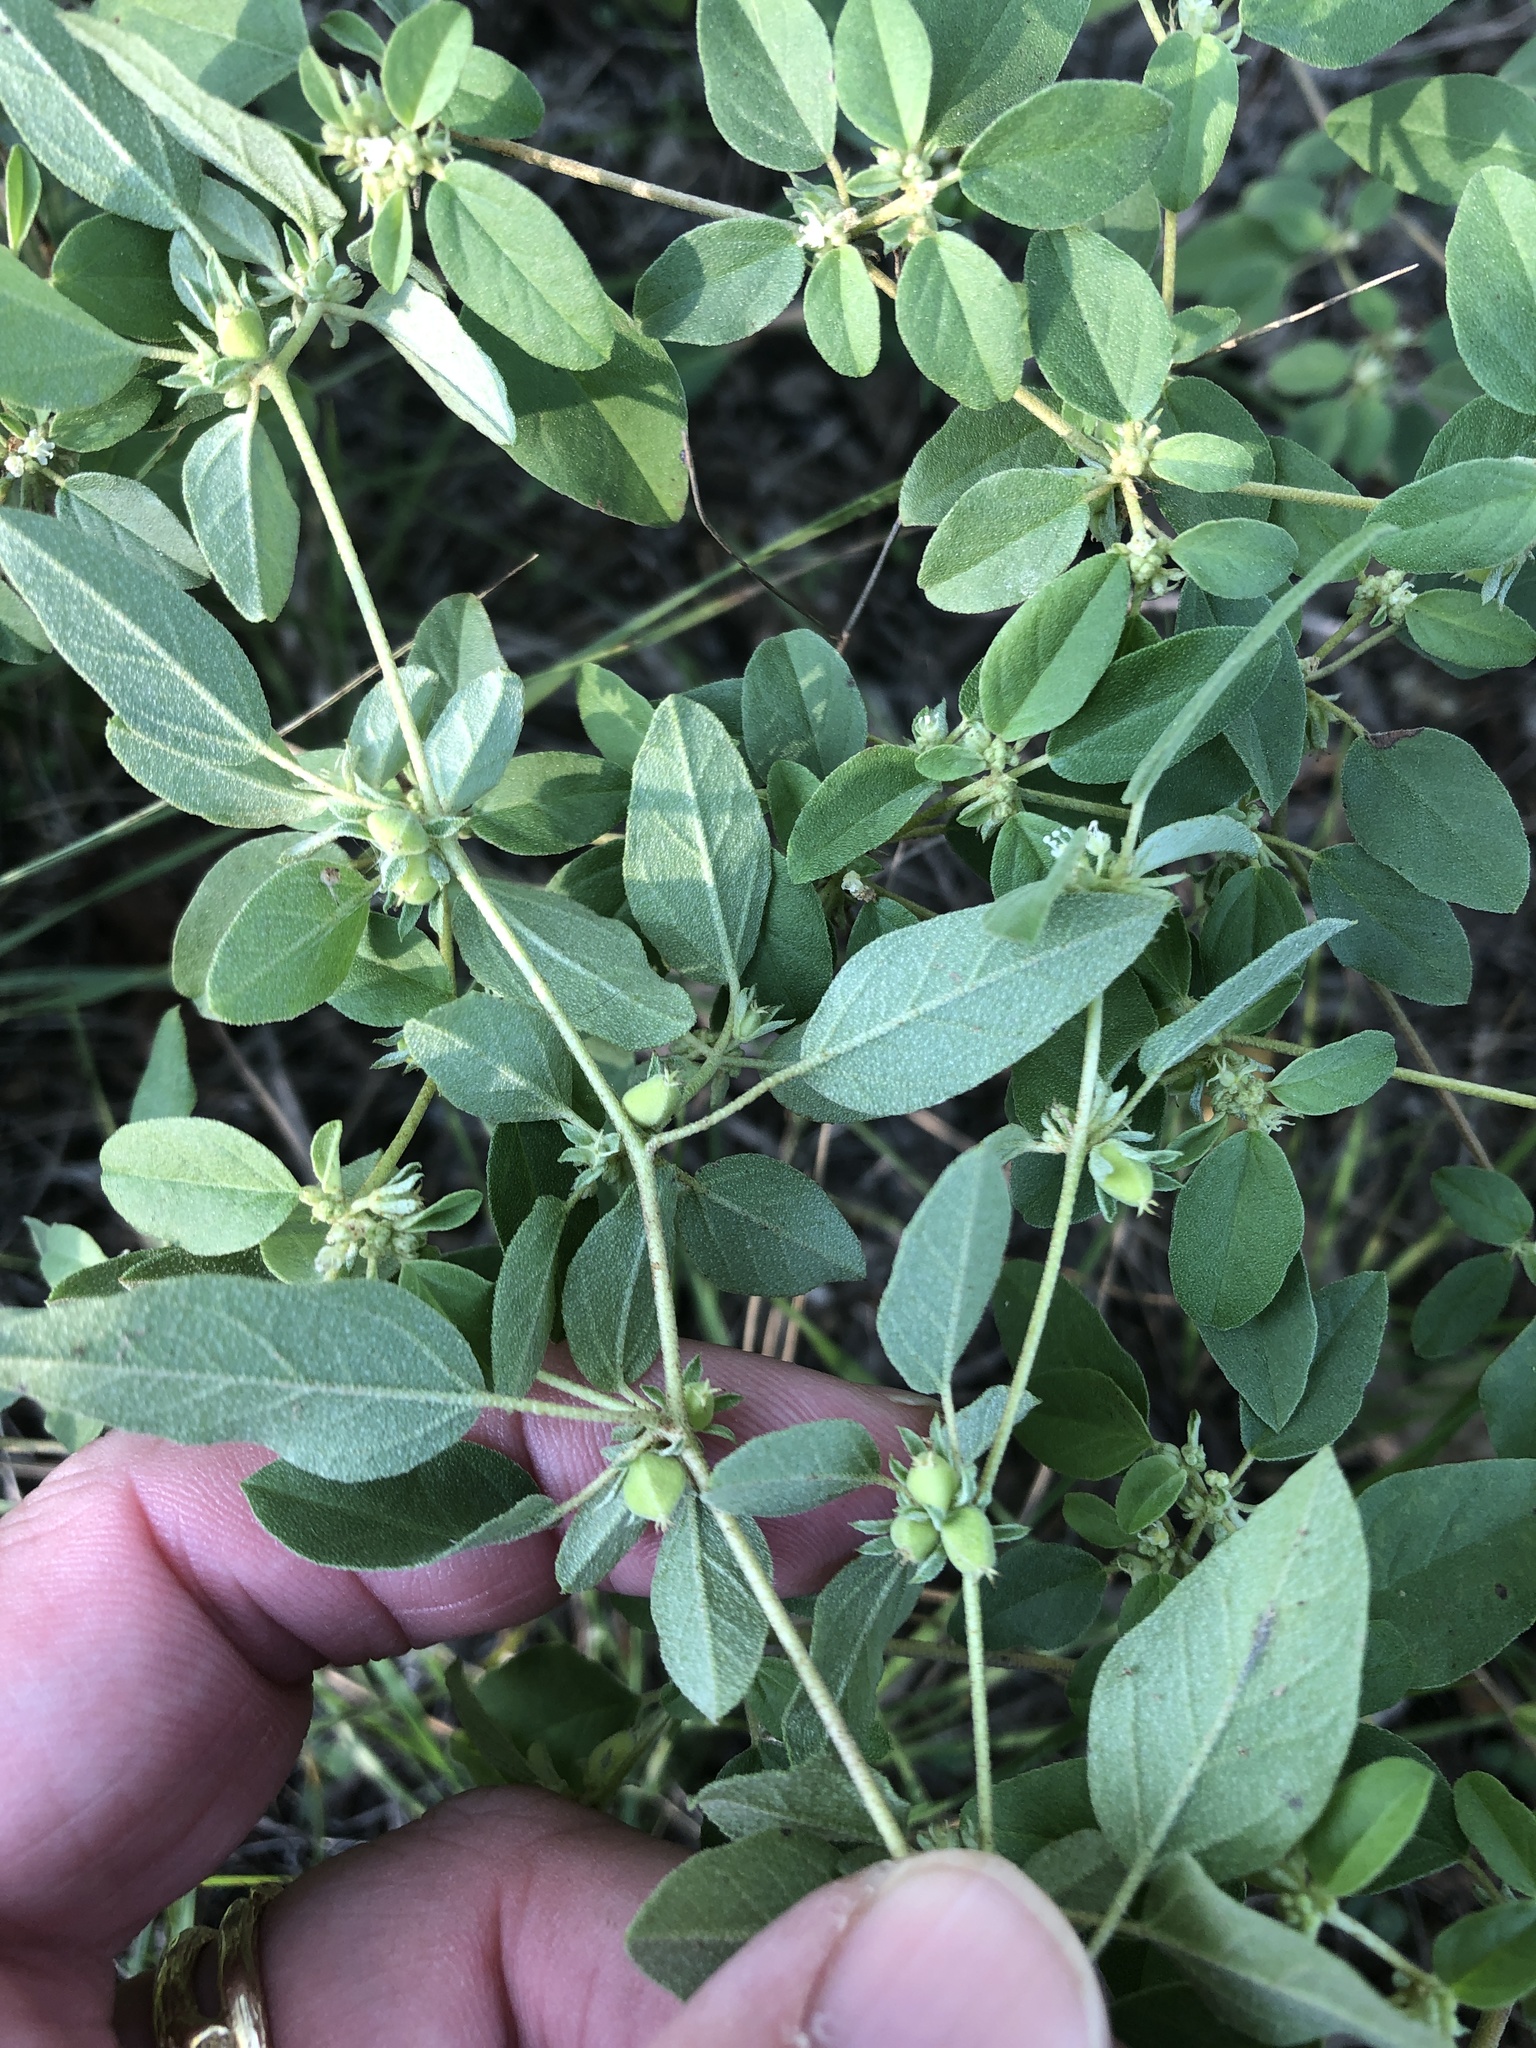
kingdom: Plantae
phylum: Tracheophyta
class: Magnoliopsida
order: Malpighiales
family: Euphorbiaceae
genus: Croton
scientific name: Croton monanthogynus
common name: One-seed croton
